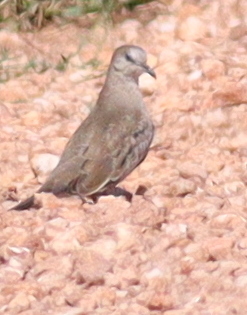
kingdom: Animalia
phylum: Chordata
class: Aves
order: Columbiformes
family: Columbidae
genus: Columbina
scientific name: Columbina picui
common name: Picui ground dove
